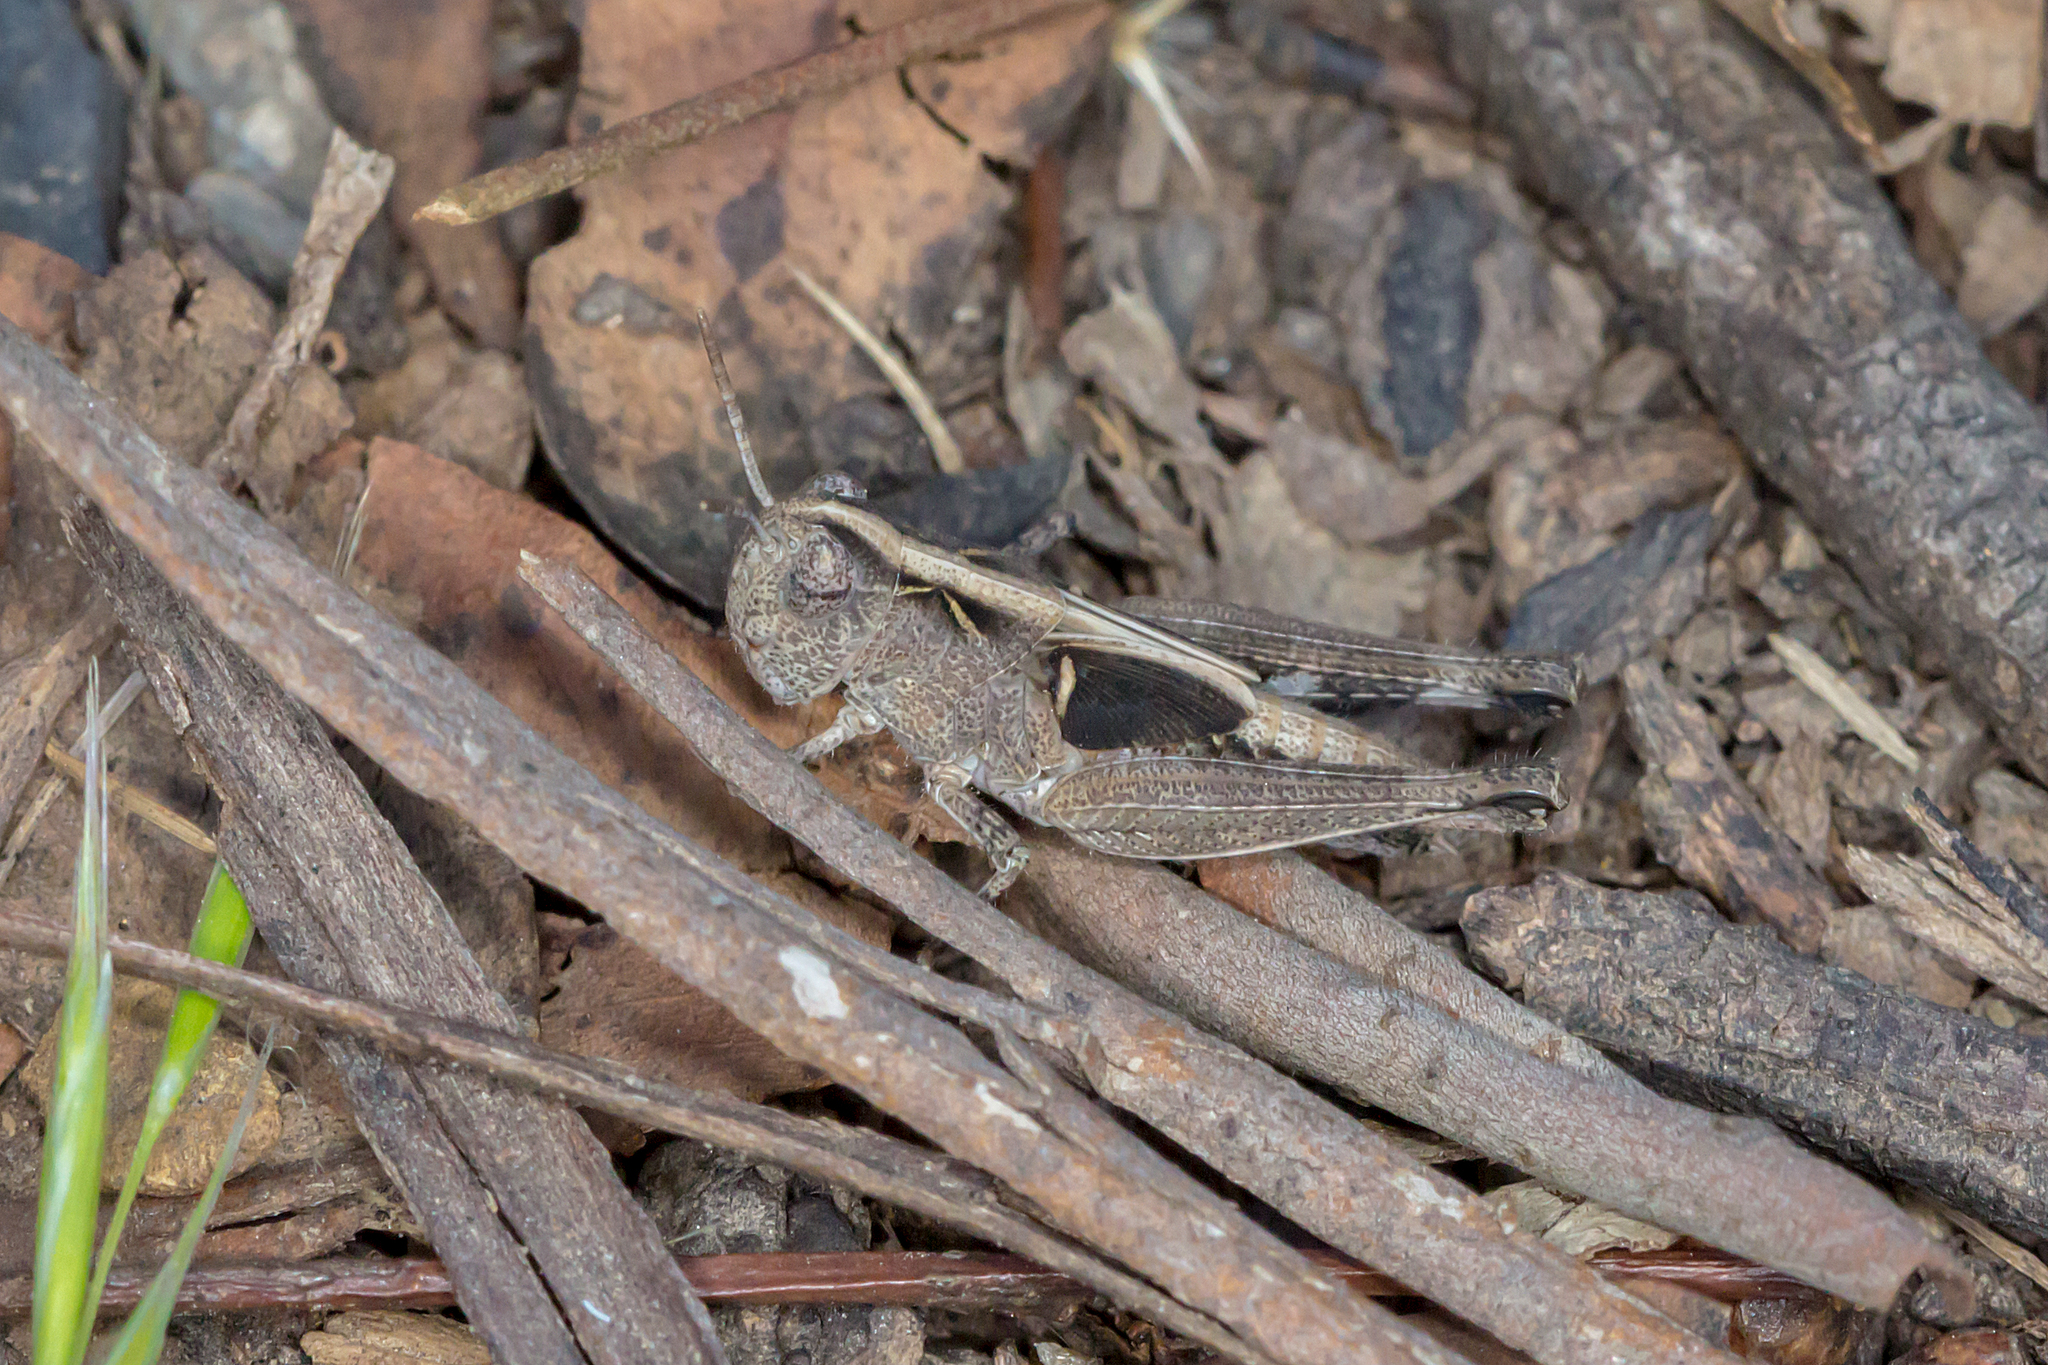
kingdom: Animalia
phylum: Arthropoda
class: Insecta
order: Orthoptera
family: Acrididae
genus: Cryptobothrus
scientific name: Cryptobothrus chrysophorus
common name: Golden bandwing
